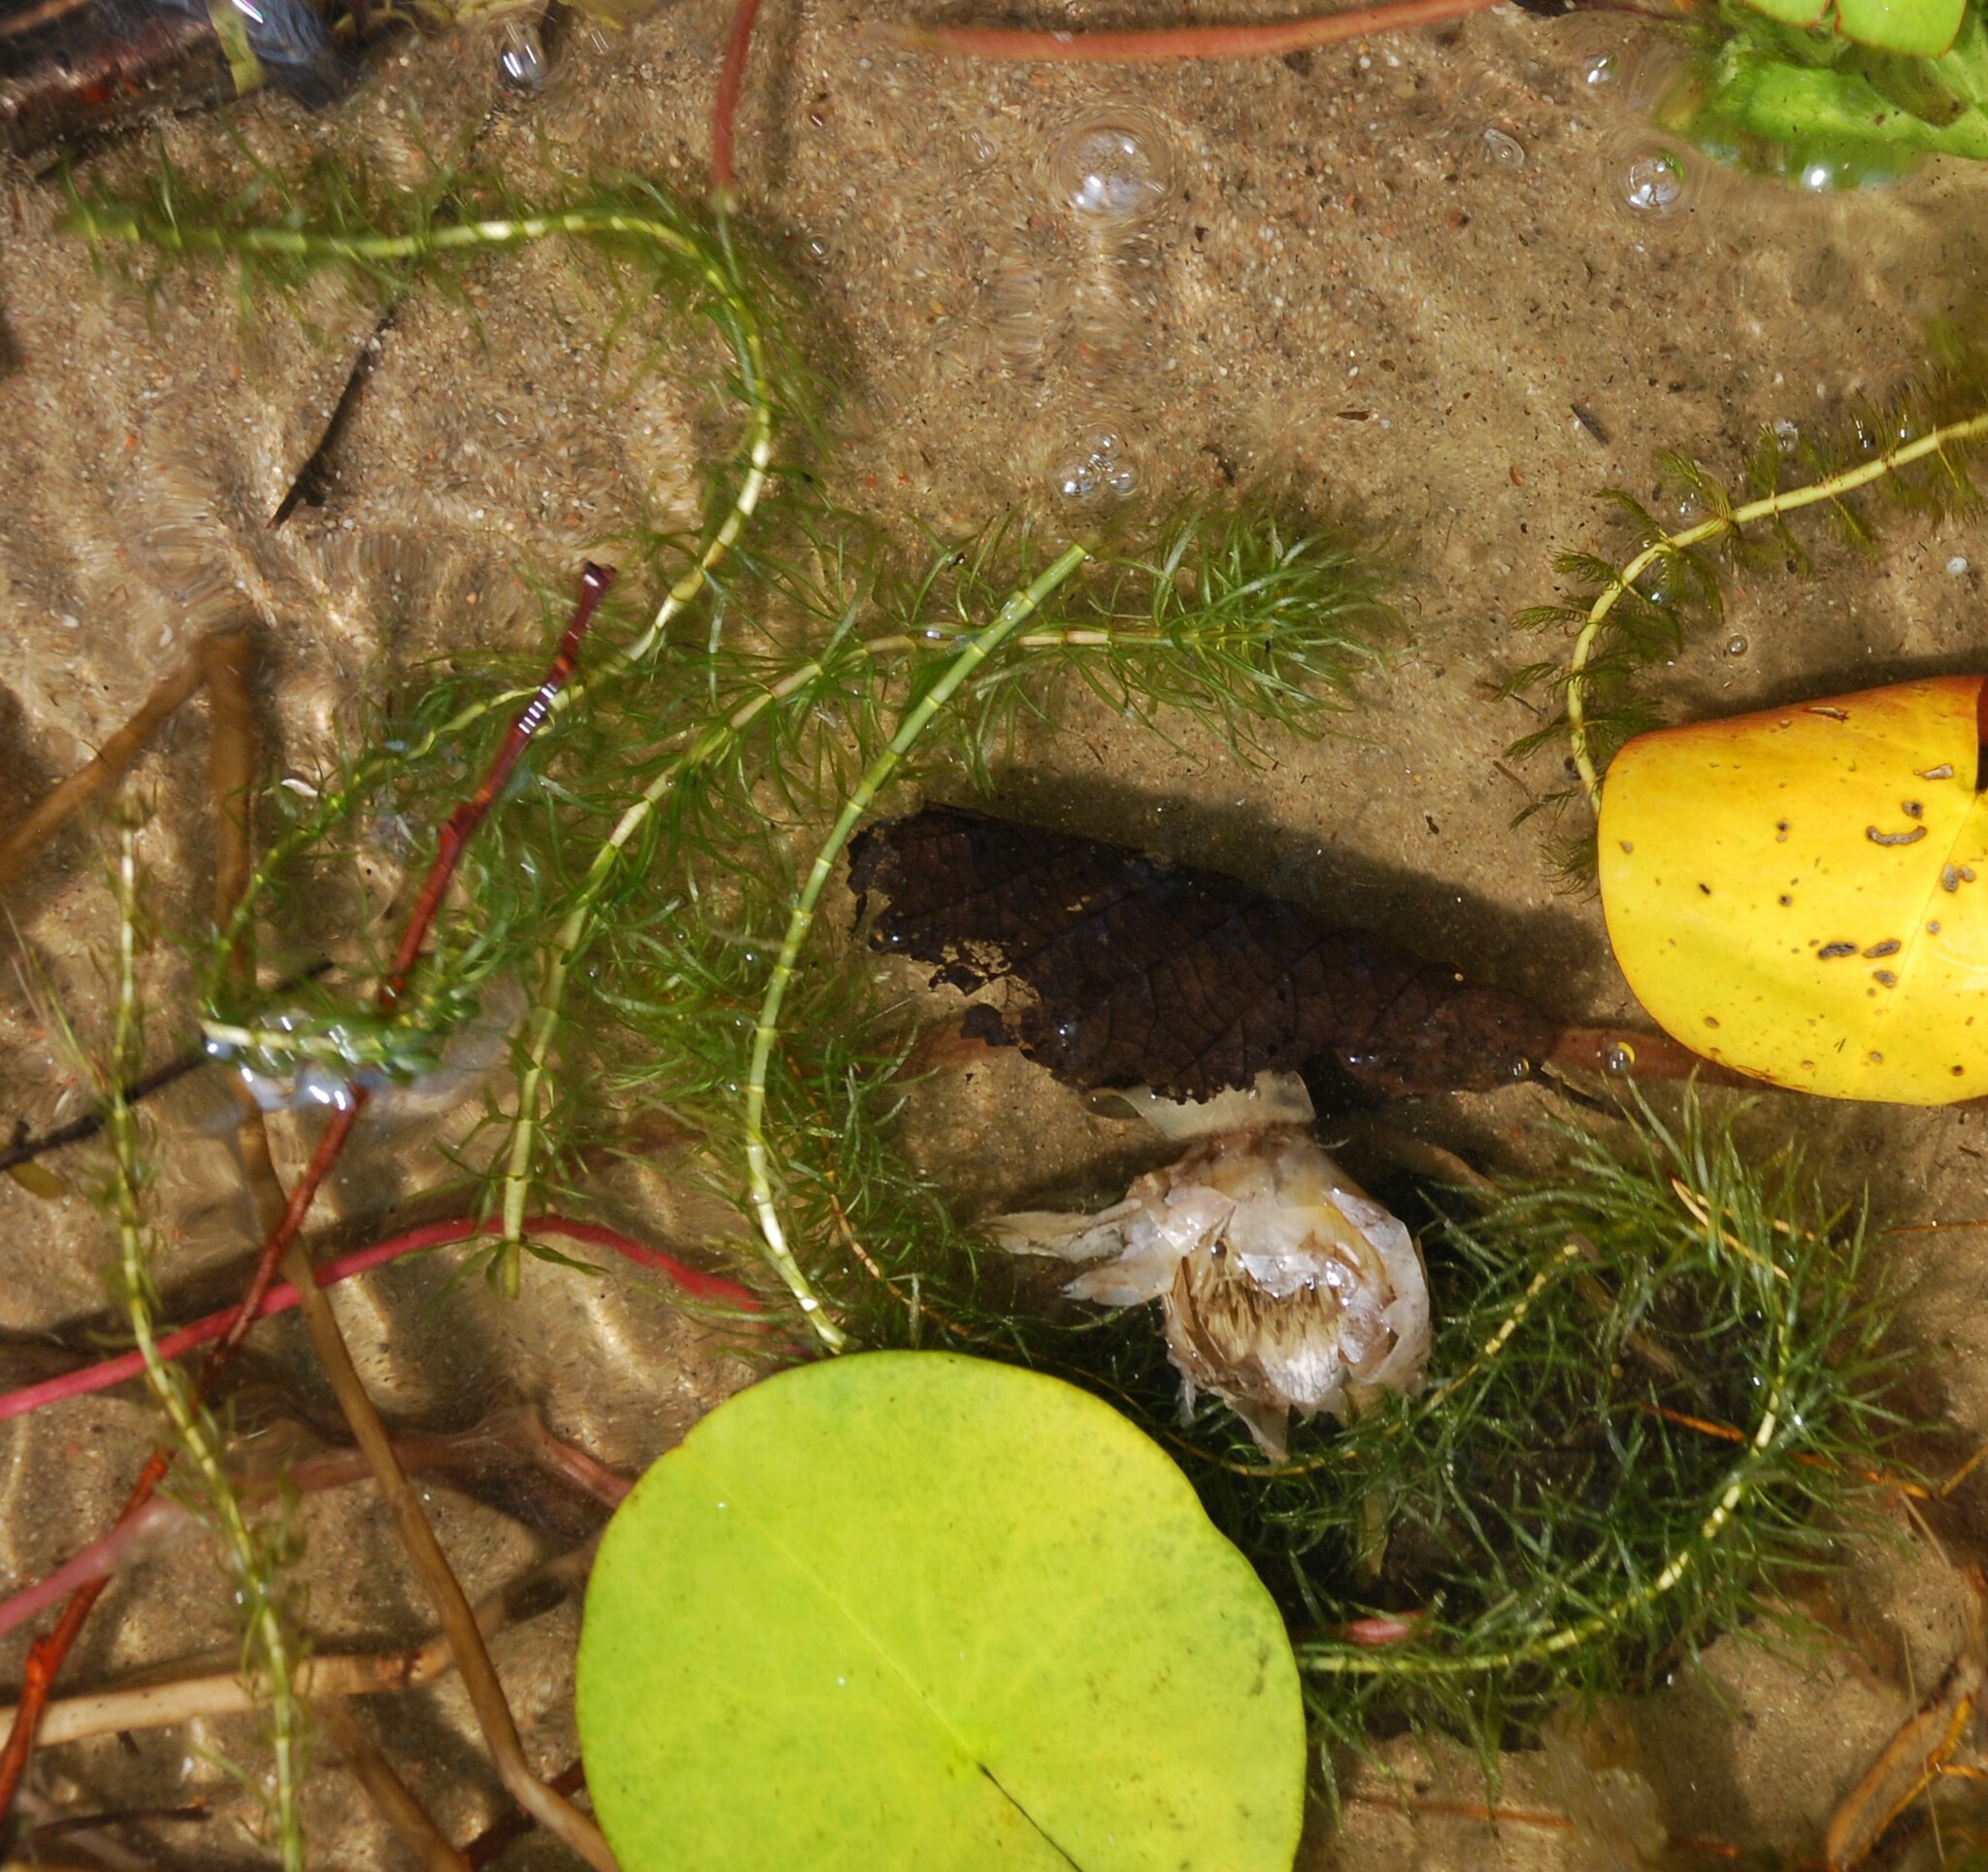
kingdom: Plantae
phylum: Tracheophyta
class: Magnoliopsida
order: Lamiales
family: Plantaginaceae
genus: Hippuris
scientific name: Hippuris vulgaris
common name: Mare's-tail
